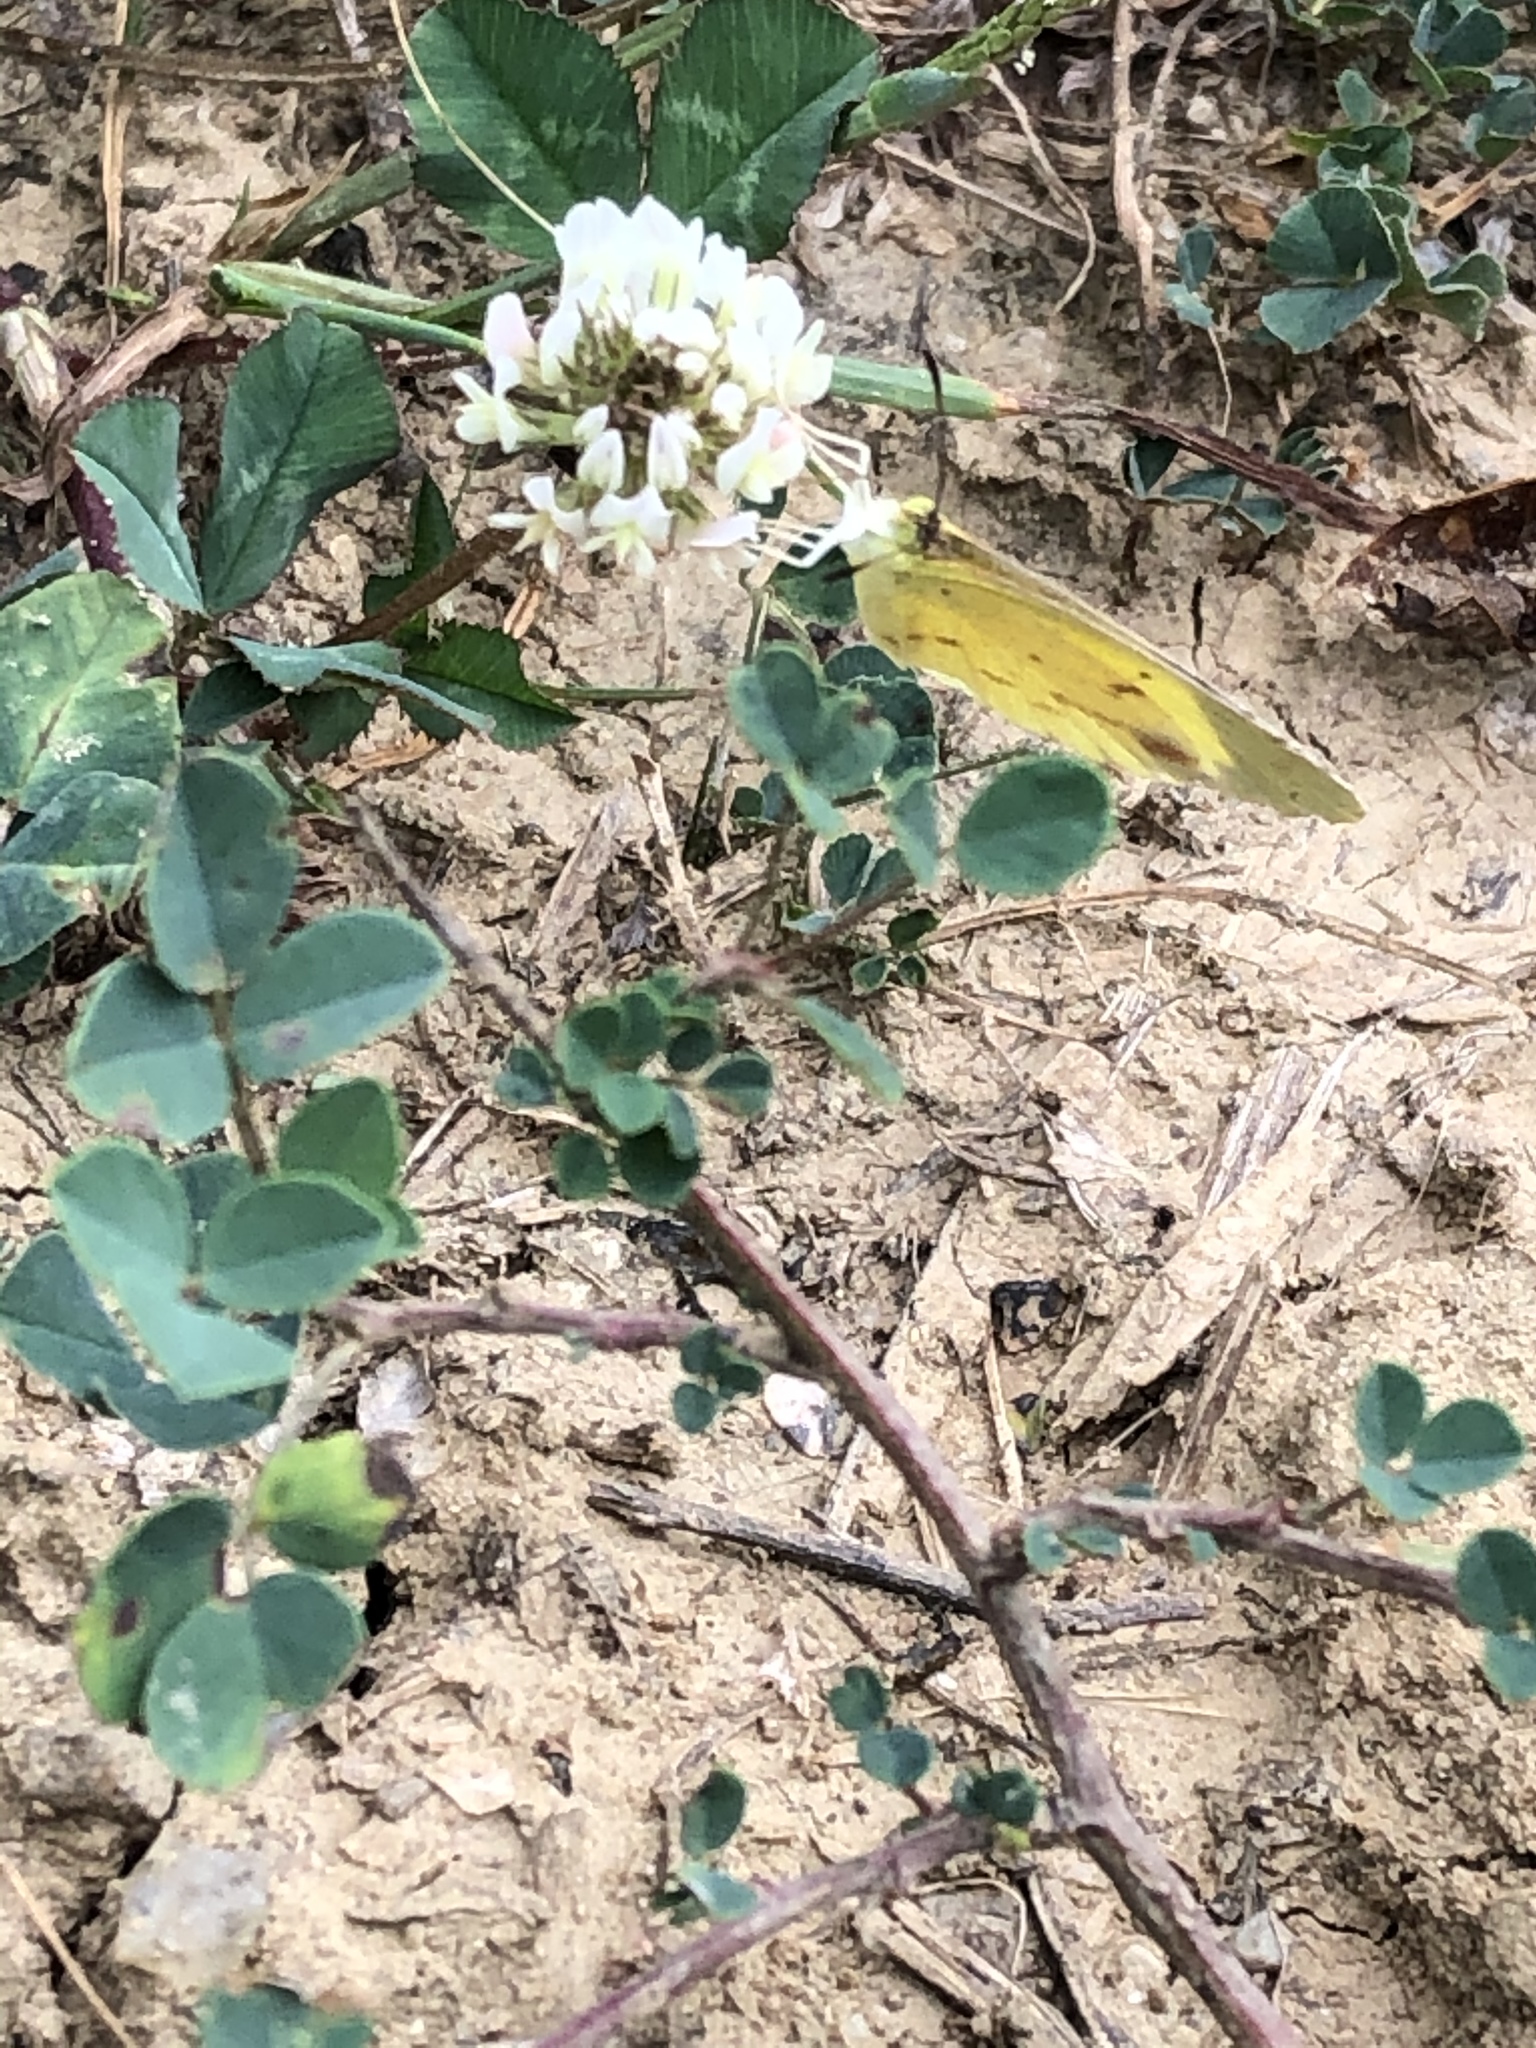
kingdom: Animalia
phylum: Arthropoda
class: Insecta
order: Lepidoptera
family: Pieridae
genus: Pyrisitia
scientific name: Pyrisitia lisa
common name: Little yellow
